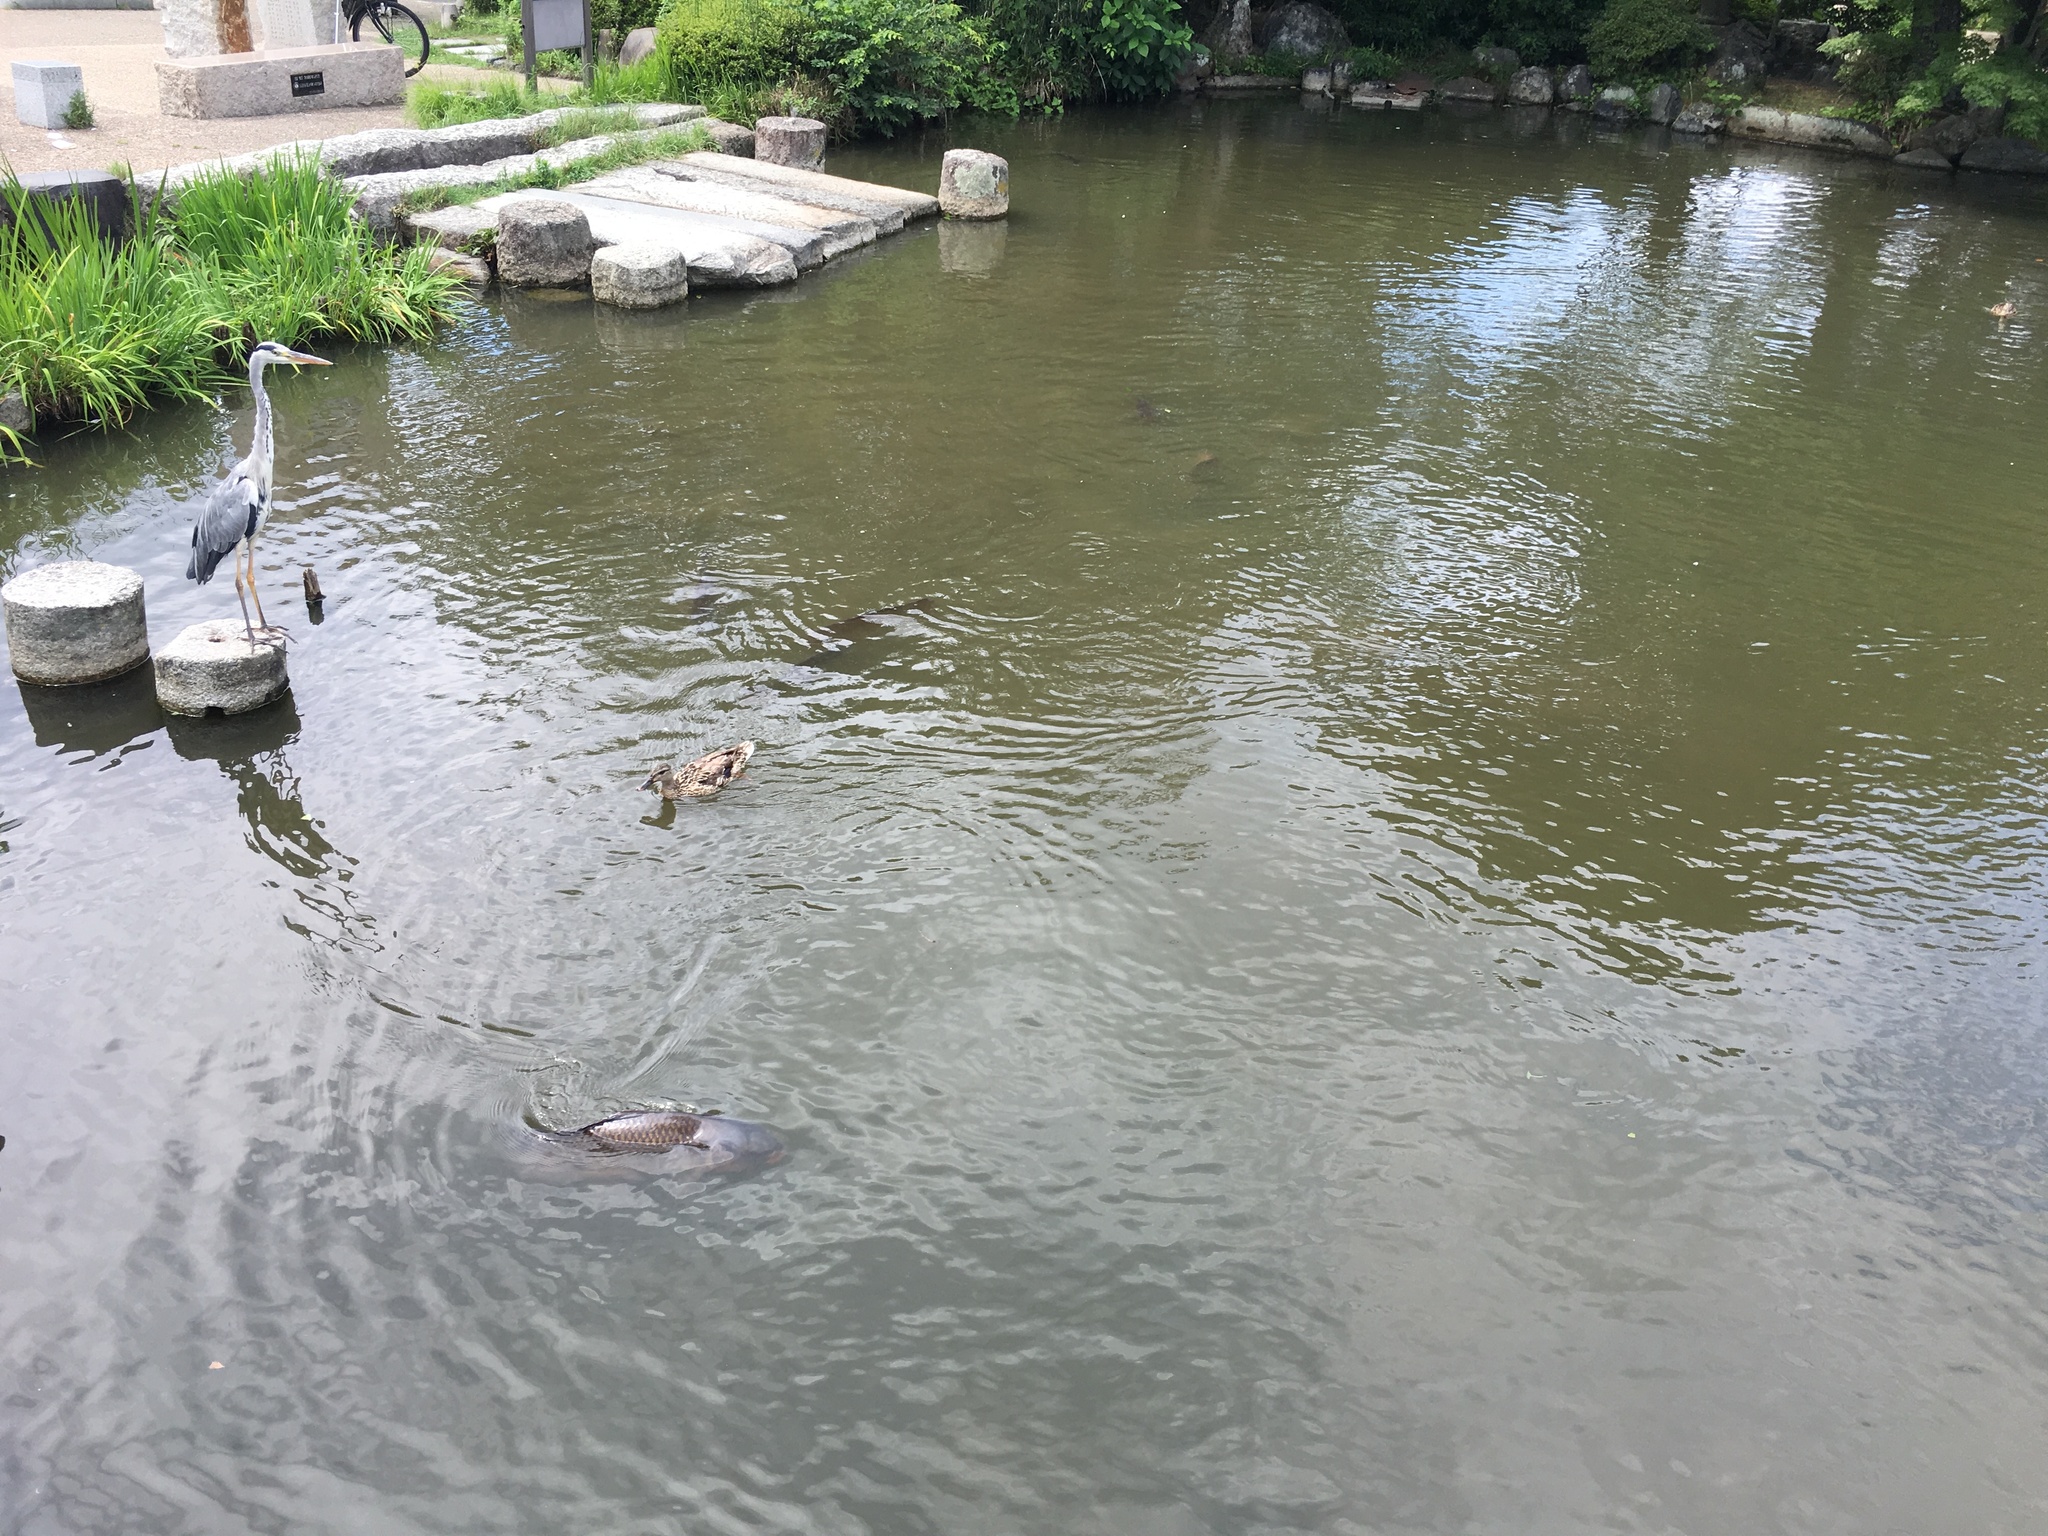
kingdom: Animalia
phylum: Chordata
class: Aves
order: Pelecaniformes
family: Ardeidae
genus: Ardea
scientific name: Ardea cinerea
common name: Grey heron
